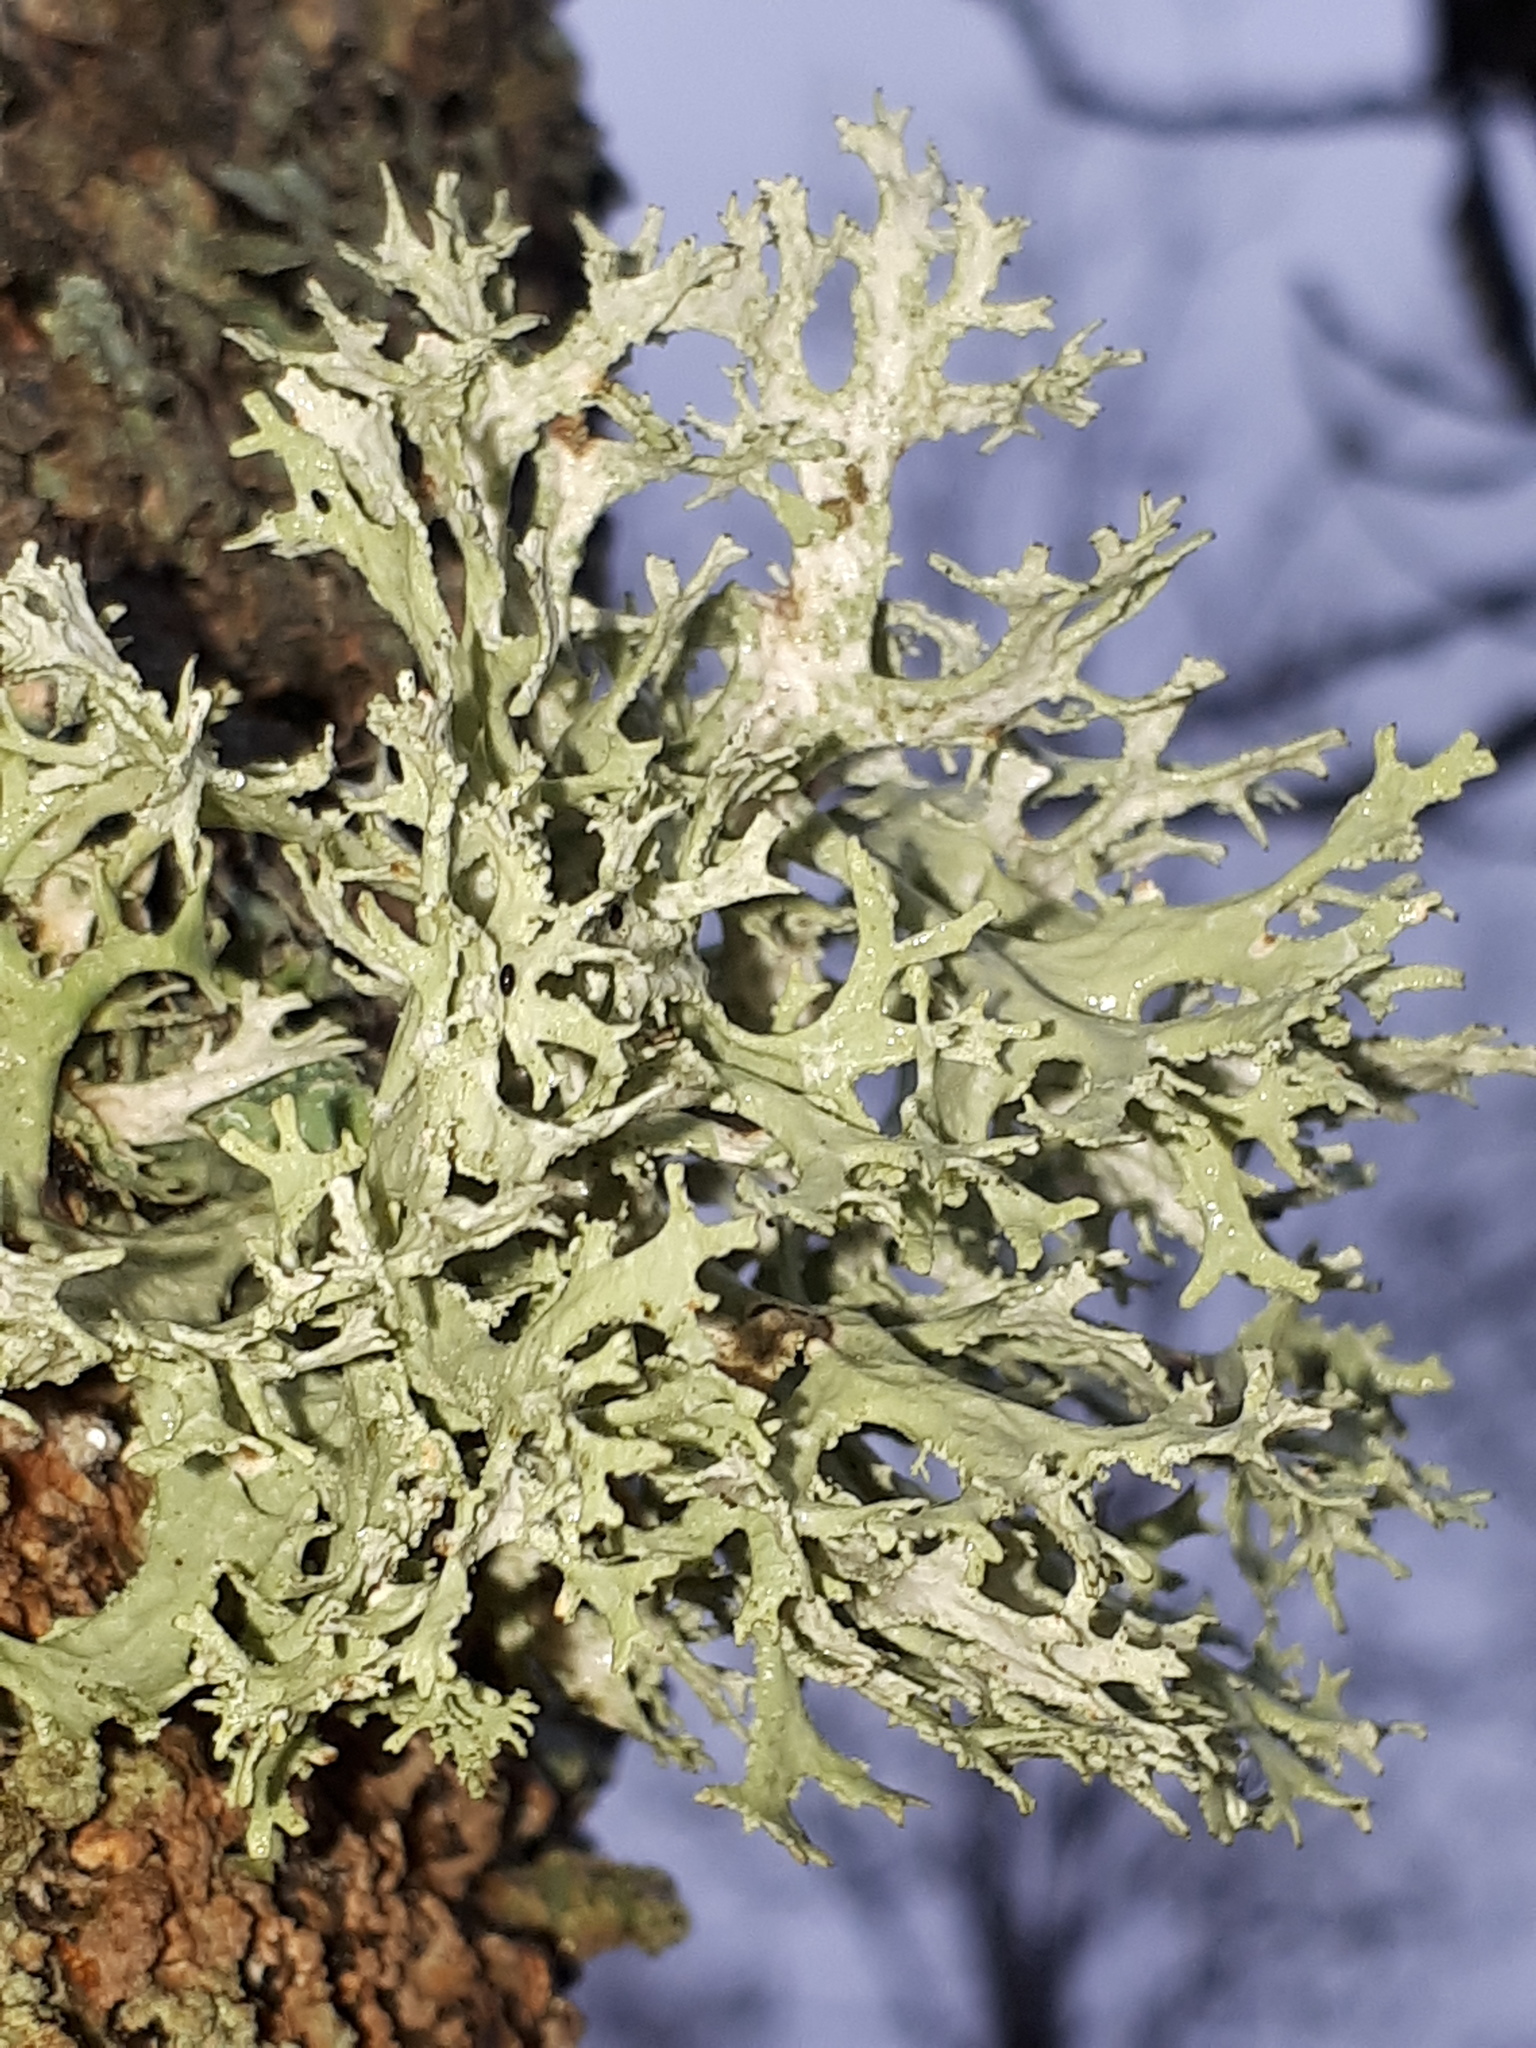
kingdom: Fungi
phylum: Ascomycota
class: Lecanoromycetes
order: Lecanorales
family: Parmeliaceae
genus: Evernia
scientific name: Evernia prunastri
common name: Oak moss
